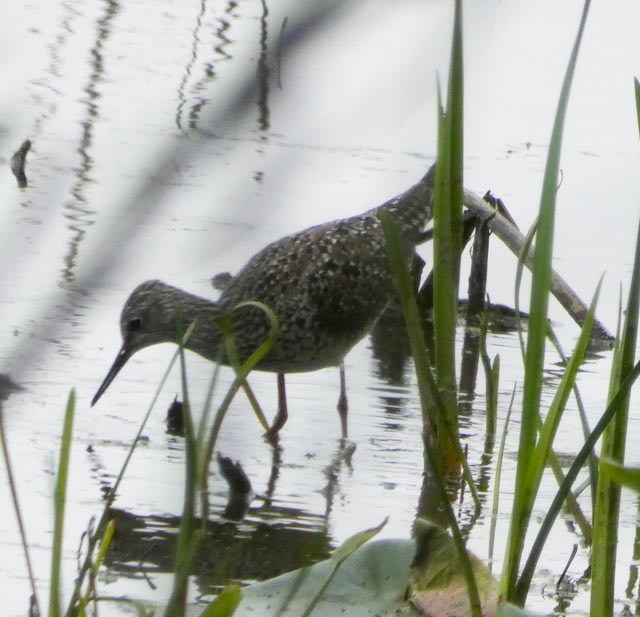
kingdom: Animalia
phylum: Chordata
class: Aves
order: Charadriiformes
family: Scolopacidae
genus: Tringa
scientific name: Tringa flavipes
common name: Lesser yellowlegs
